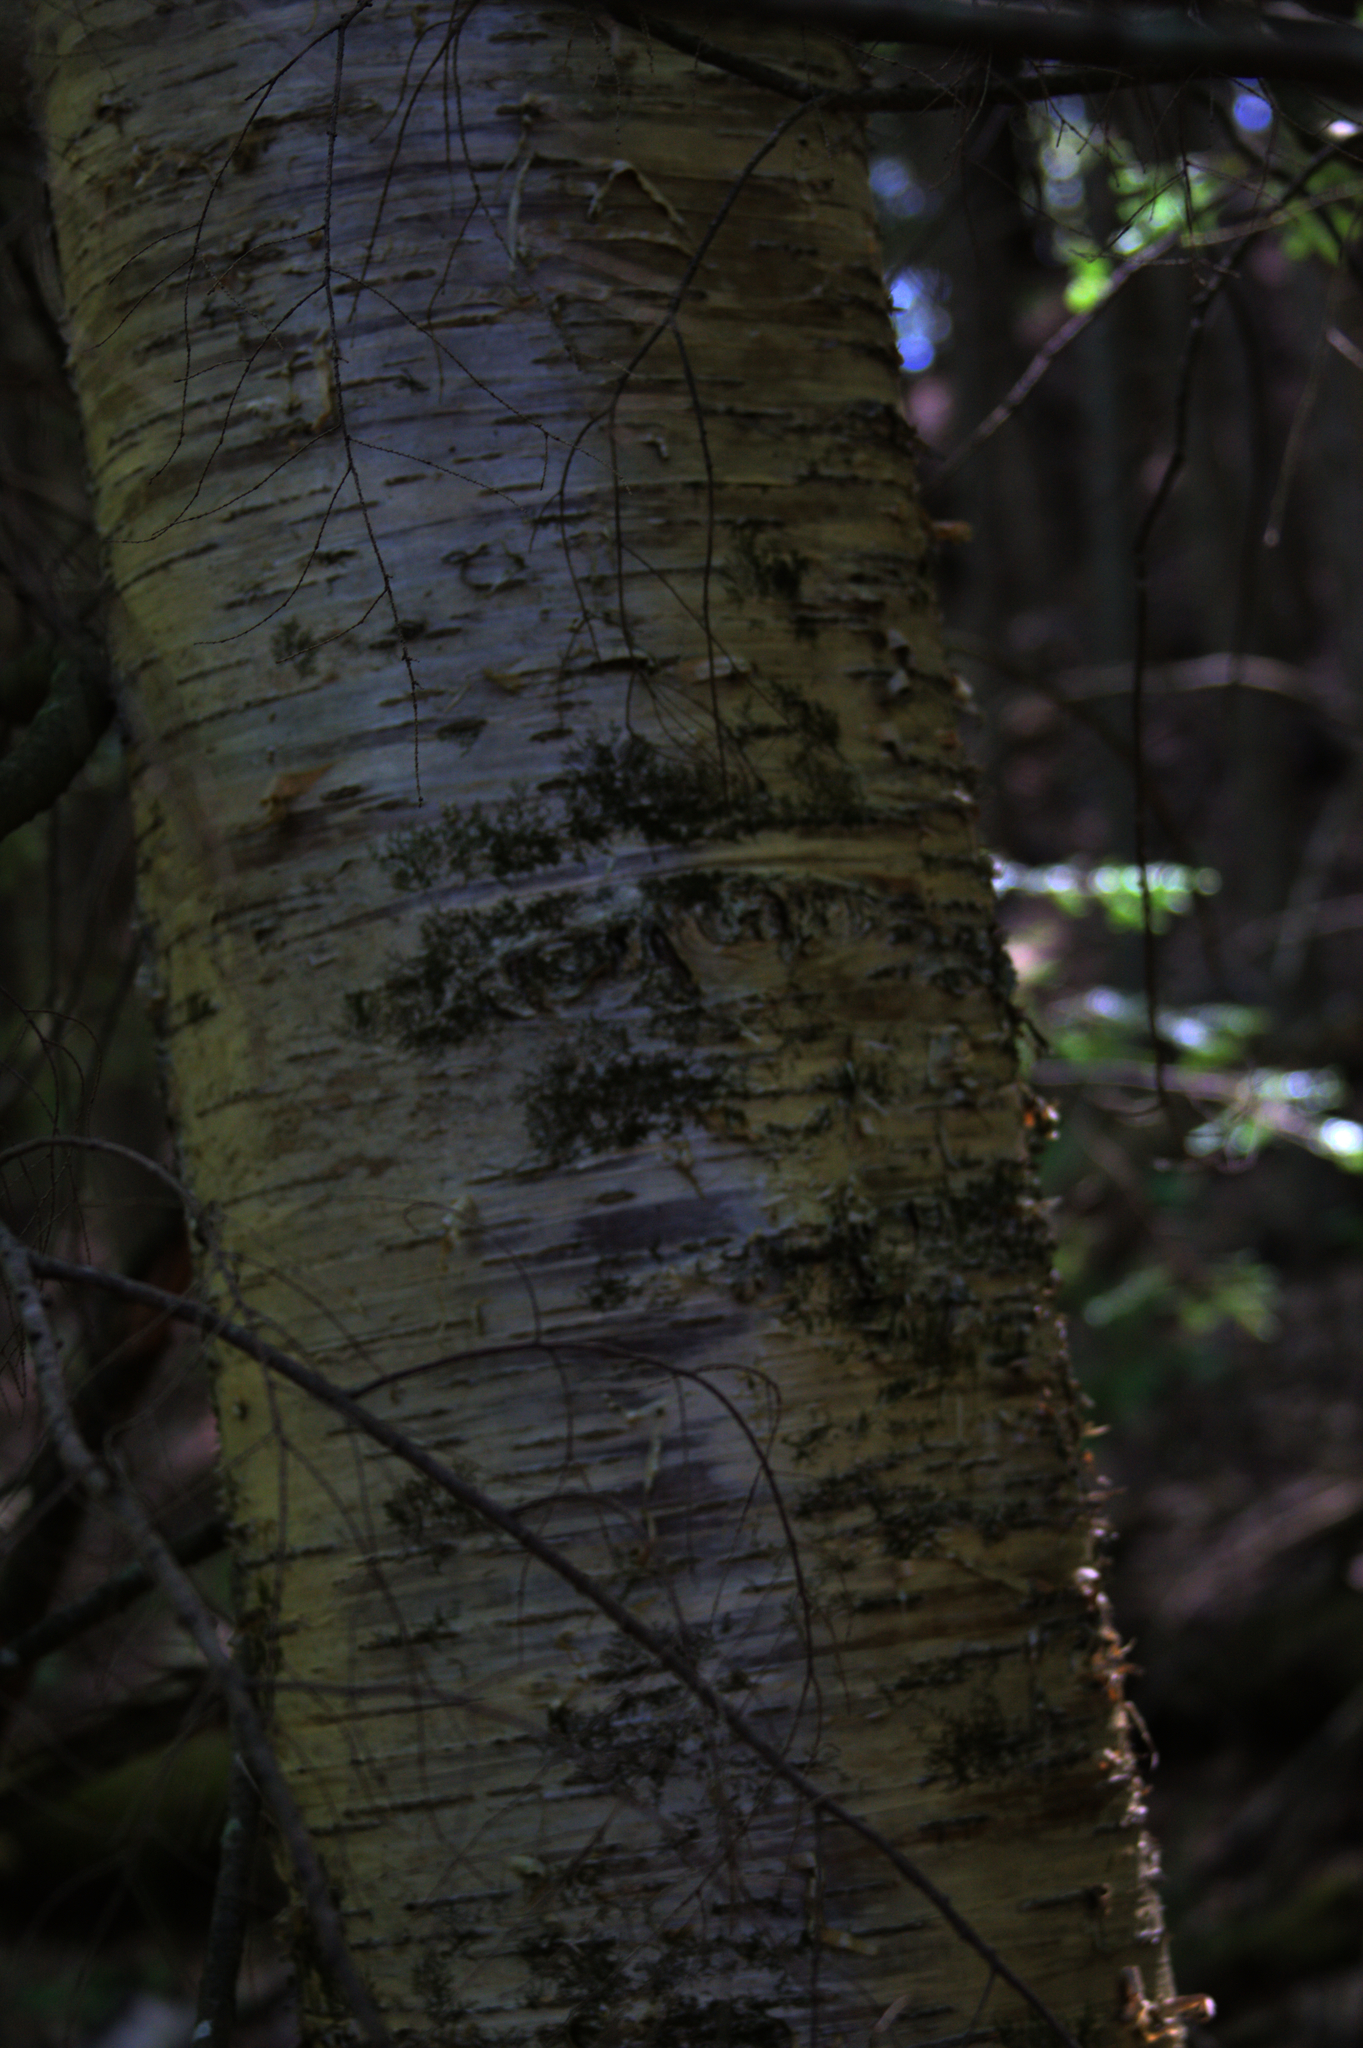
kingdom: Plantae
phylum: Tracheophyta
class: Magnoliopsida
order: Fagales
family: Betulaceae
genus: Betula
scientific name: Betula alleghaniensis
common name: Yellow birch
